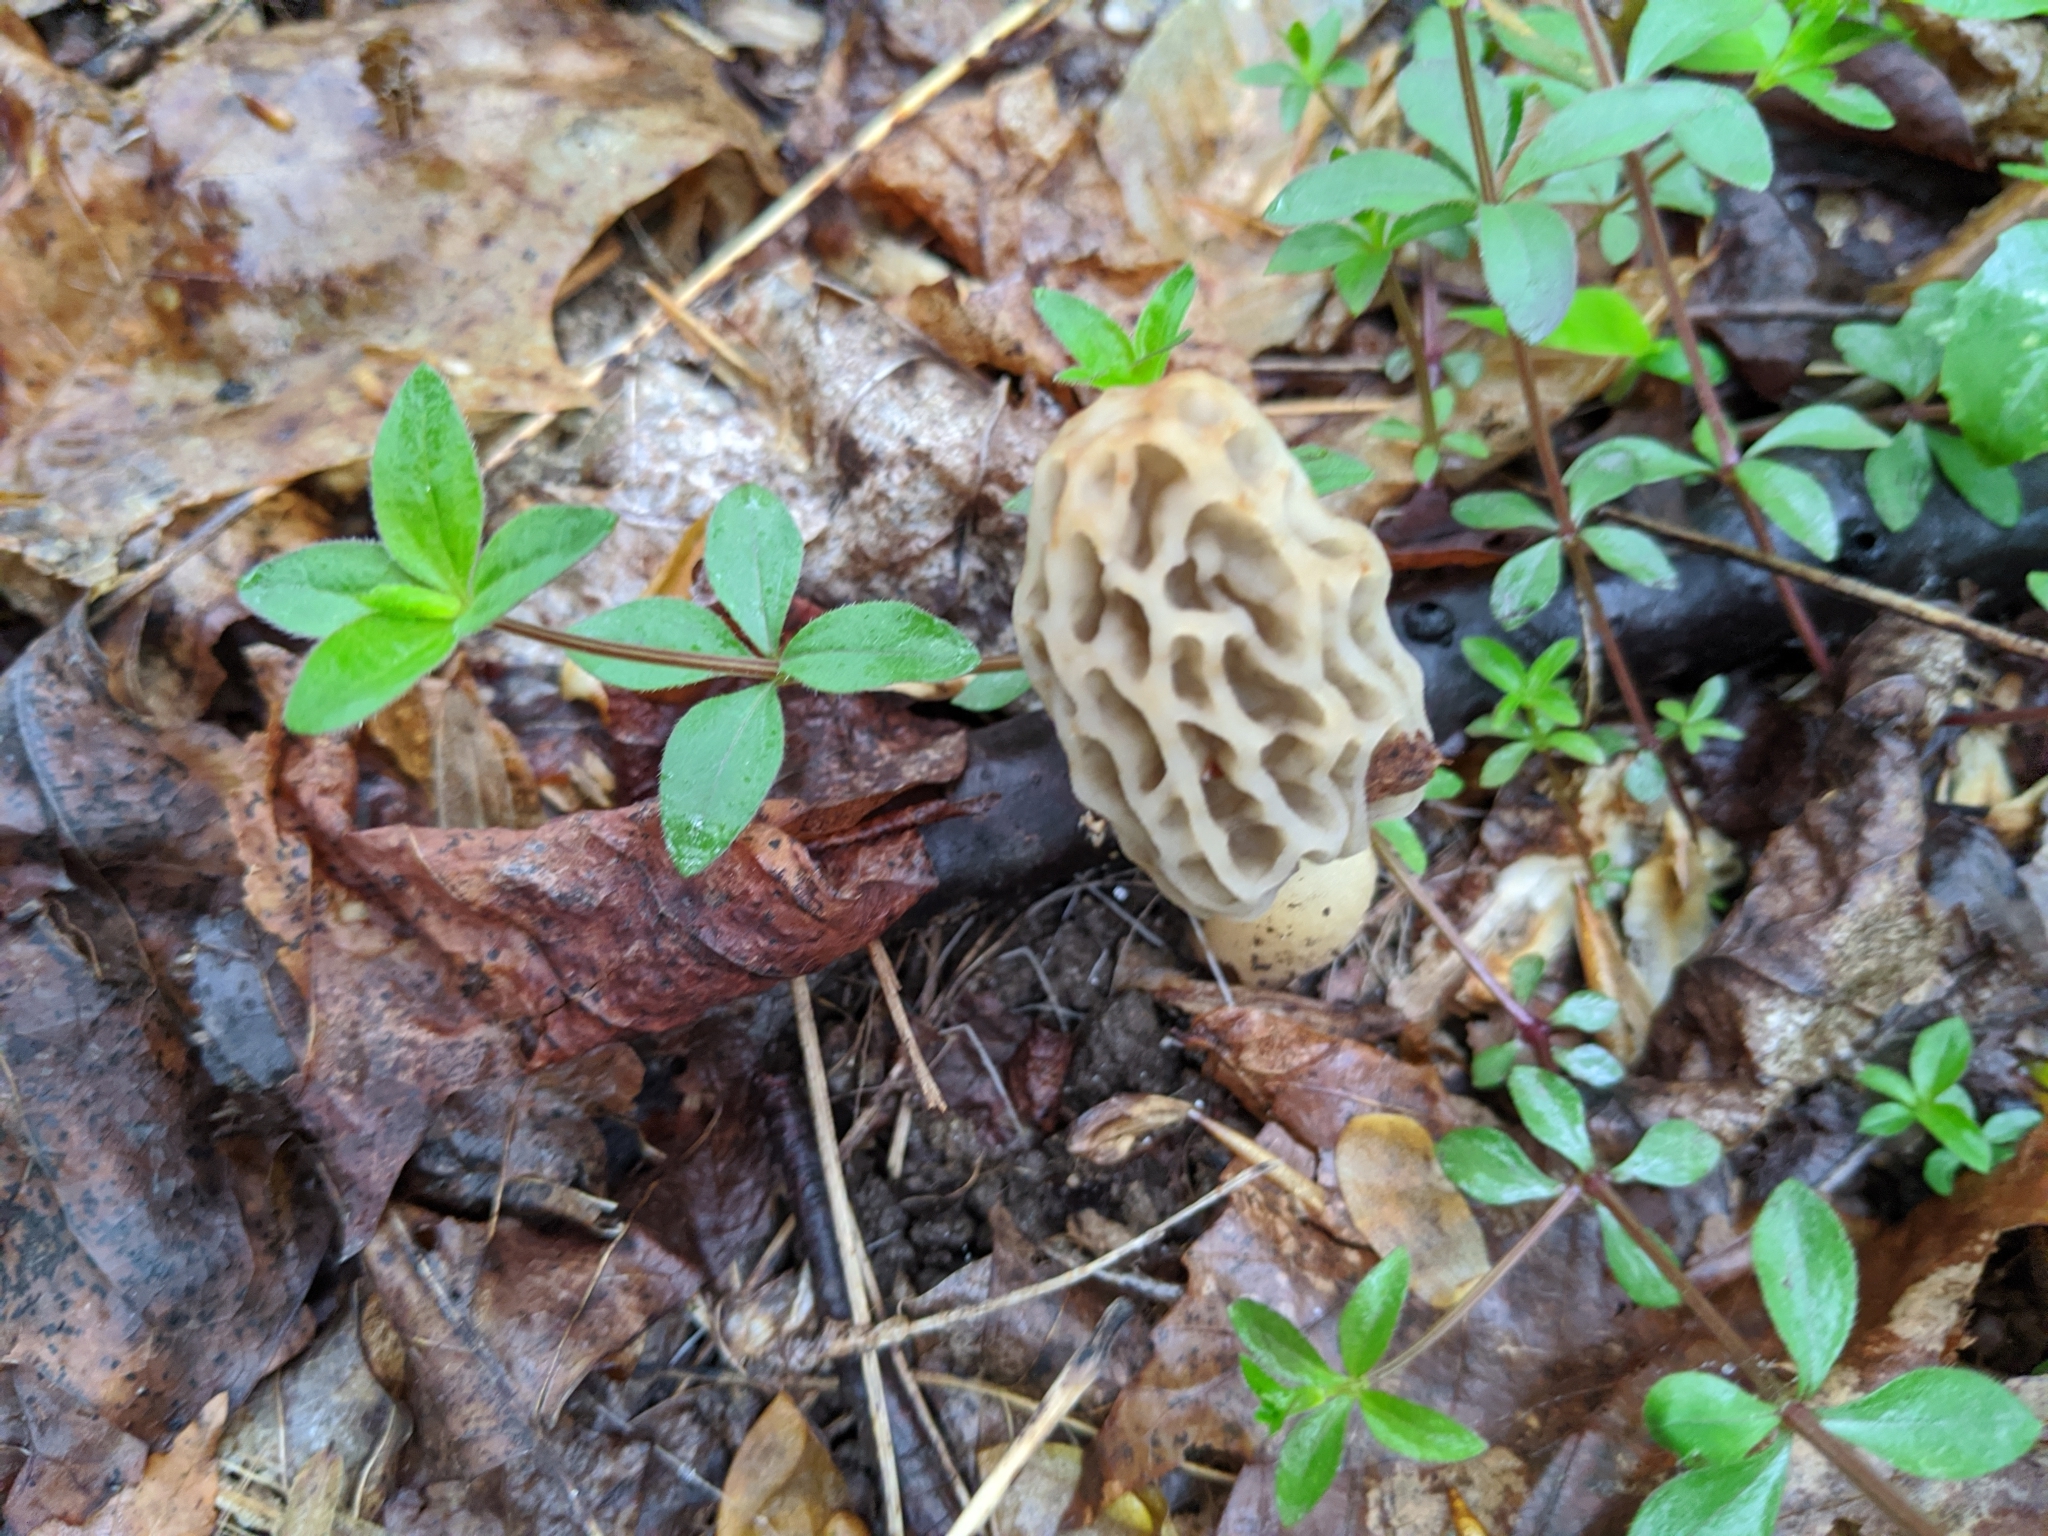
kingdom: Fungi
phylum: Ascomycota
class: Pezizomycetes
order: Pezizales
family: Morchellaceae
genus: Morchella
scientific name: Morchella
